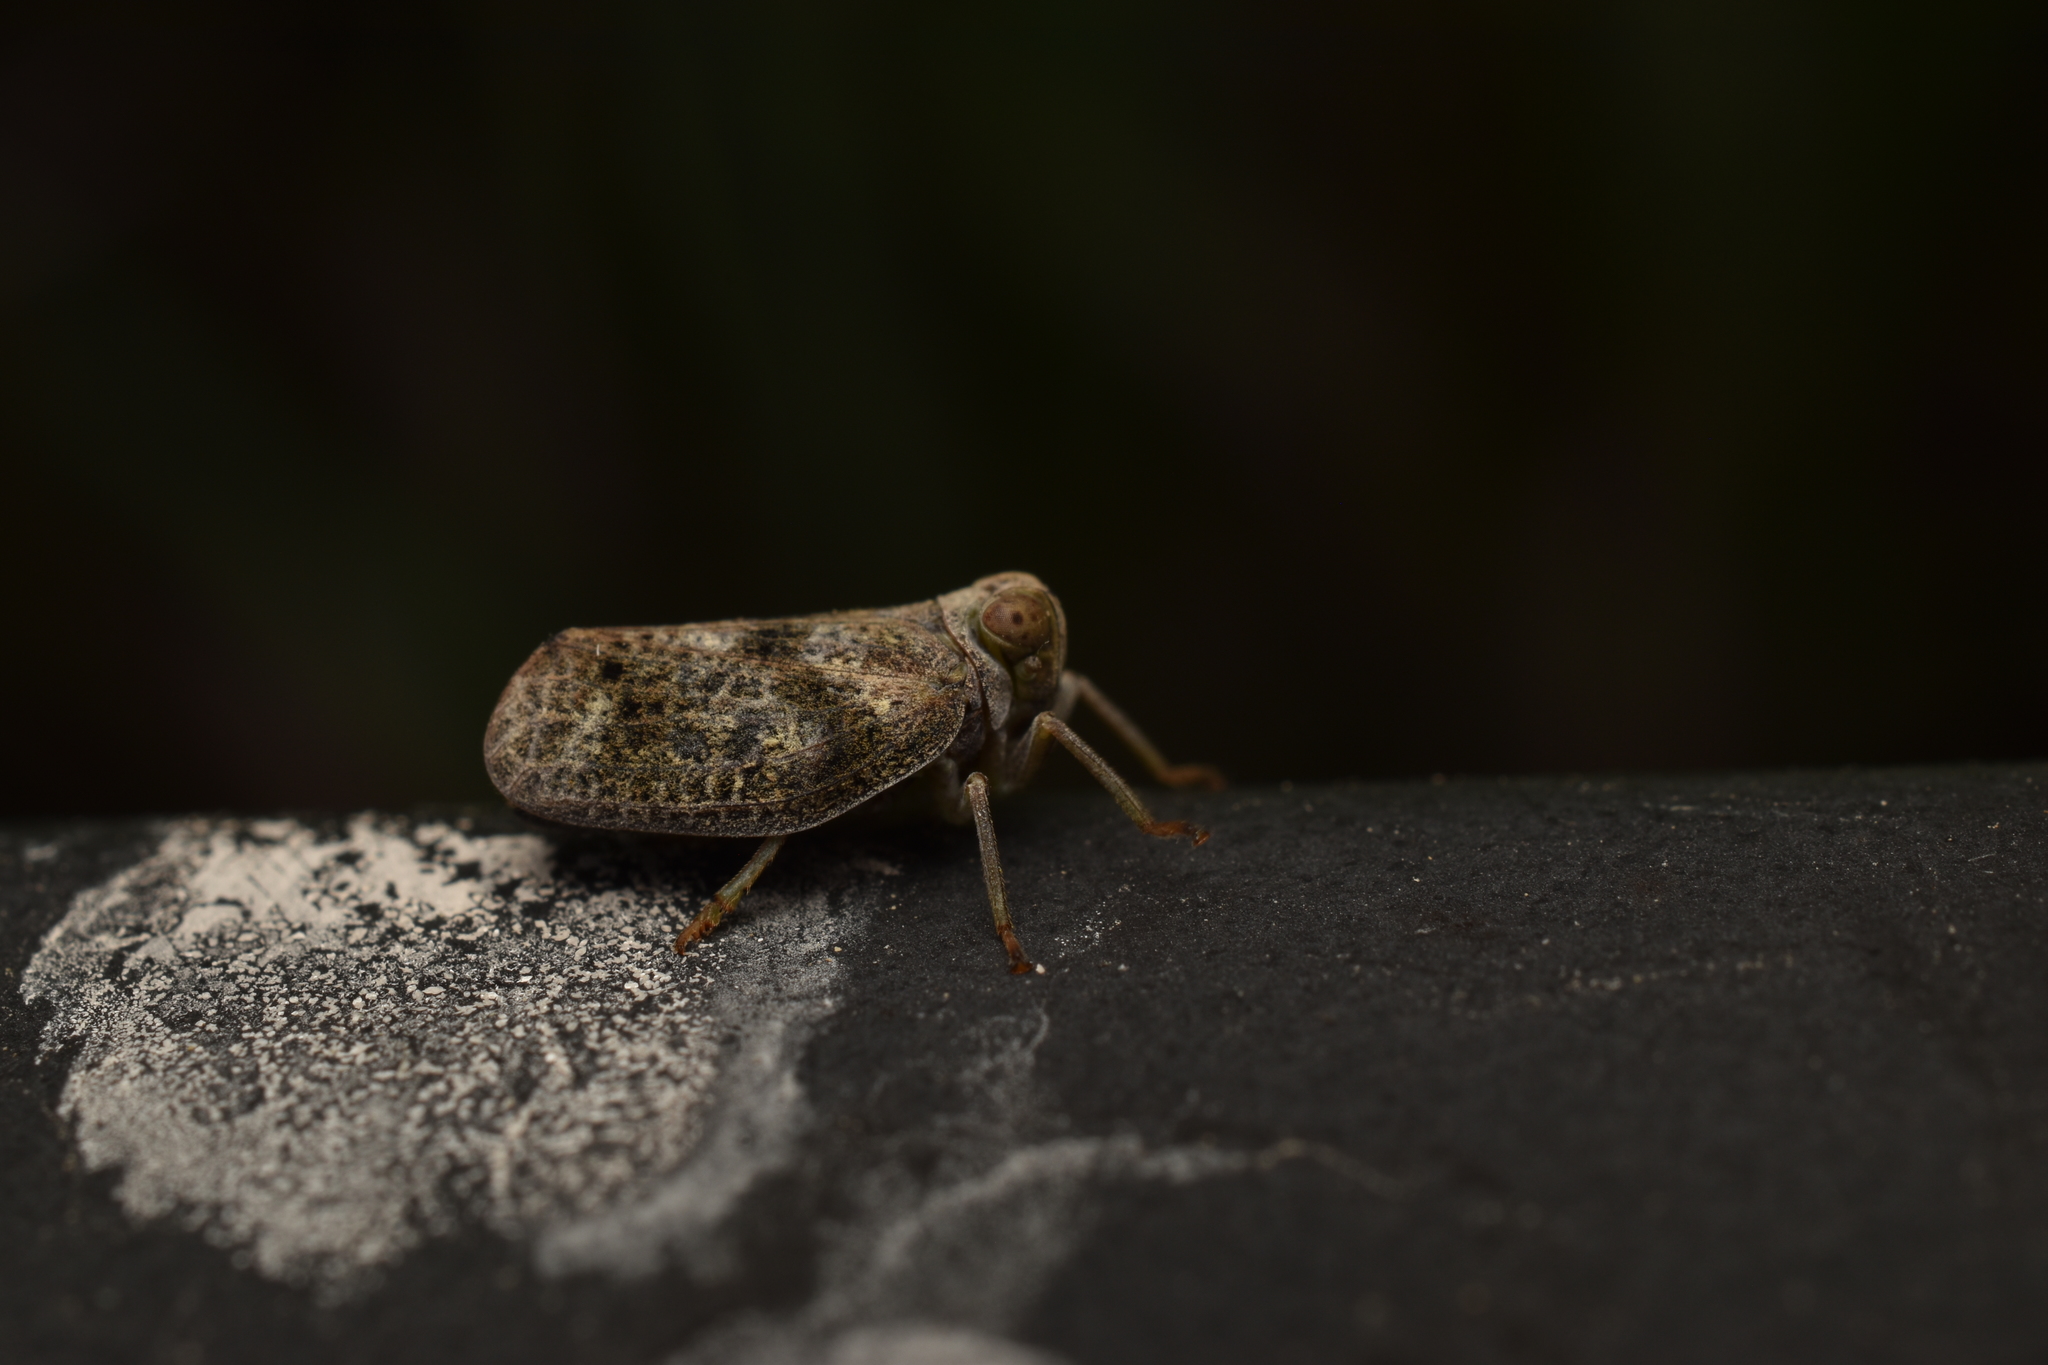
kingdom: Animalia
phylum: Arthropoda
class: Insecta
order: Hemiptera
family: Issidae
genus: Thionia
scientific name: Thionia bullata
